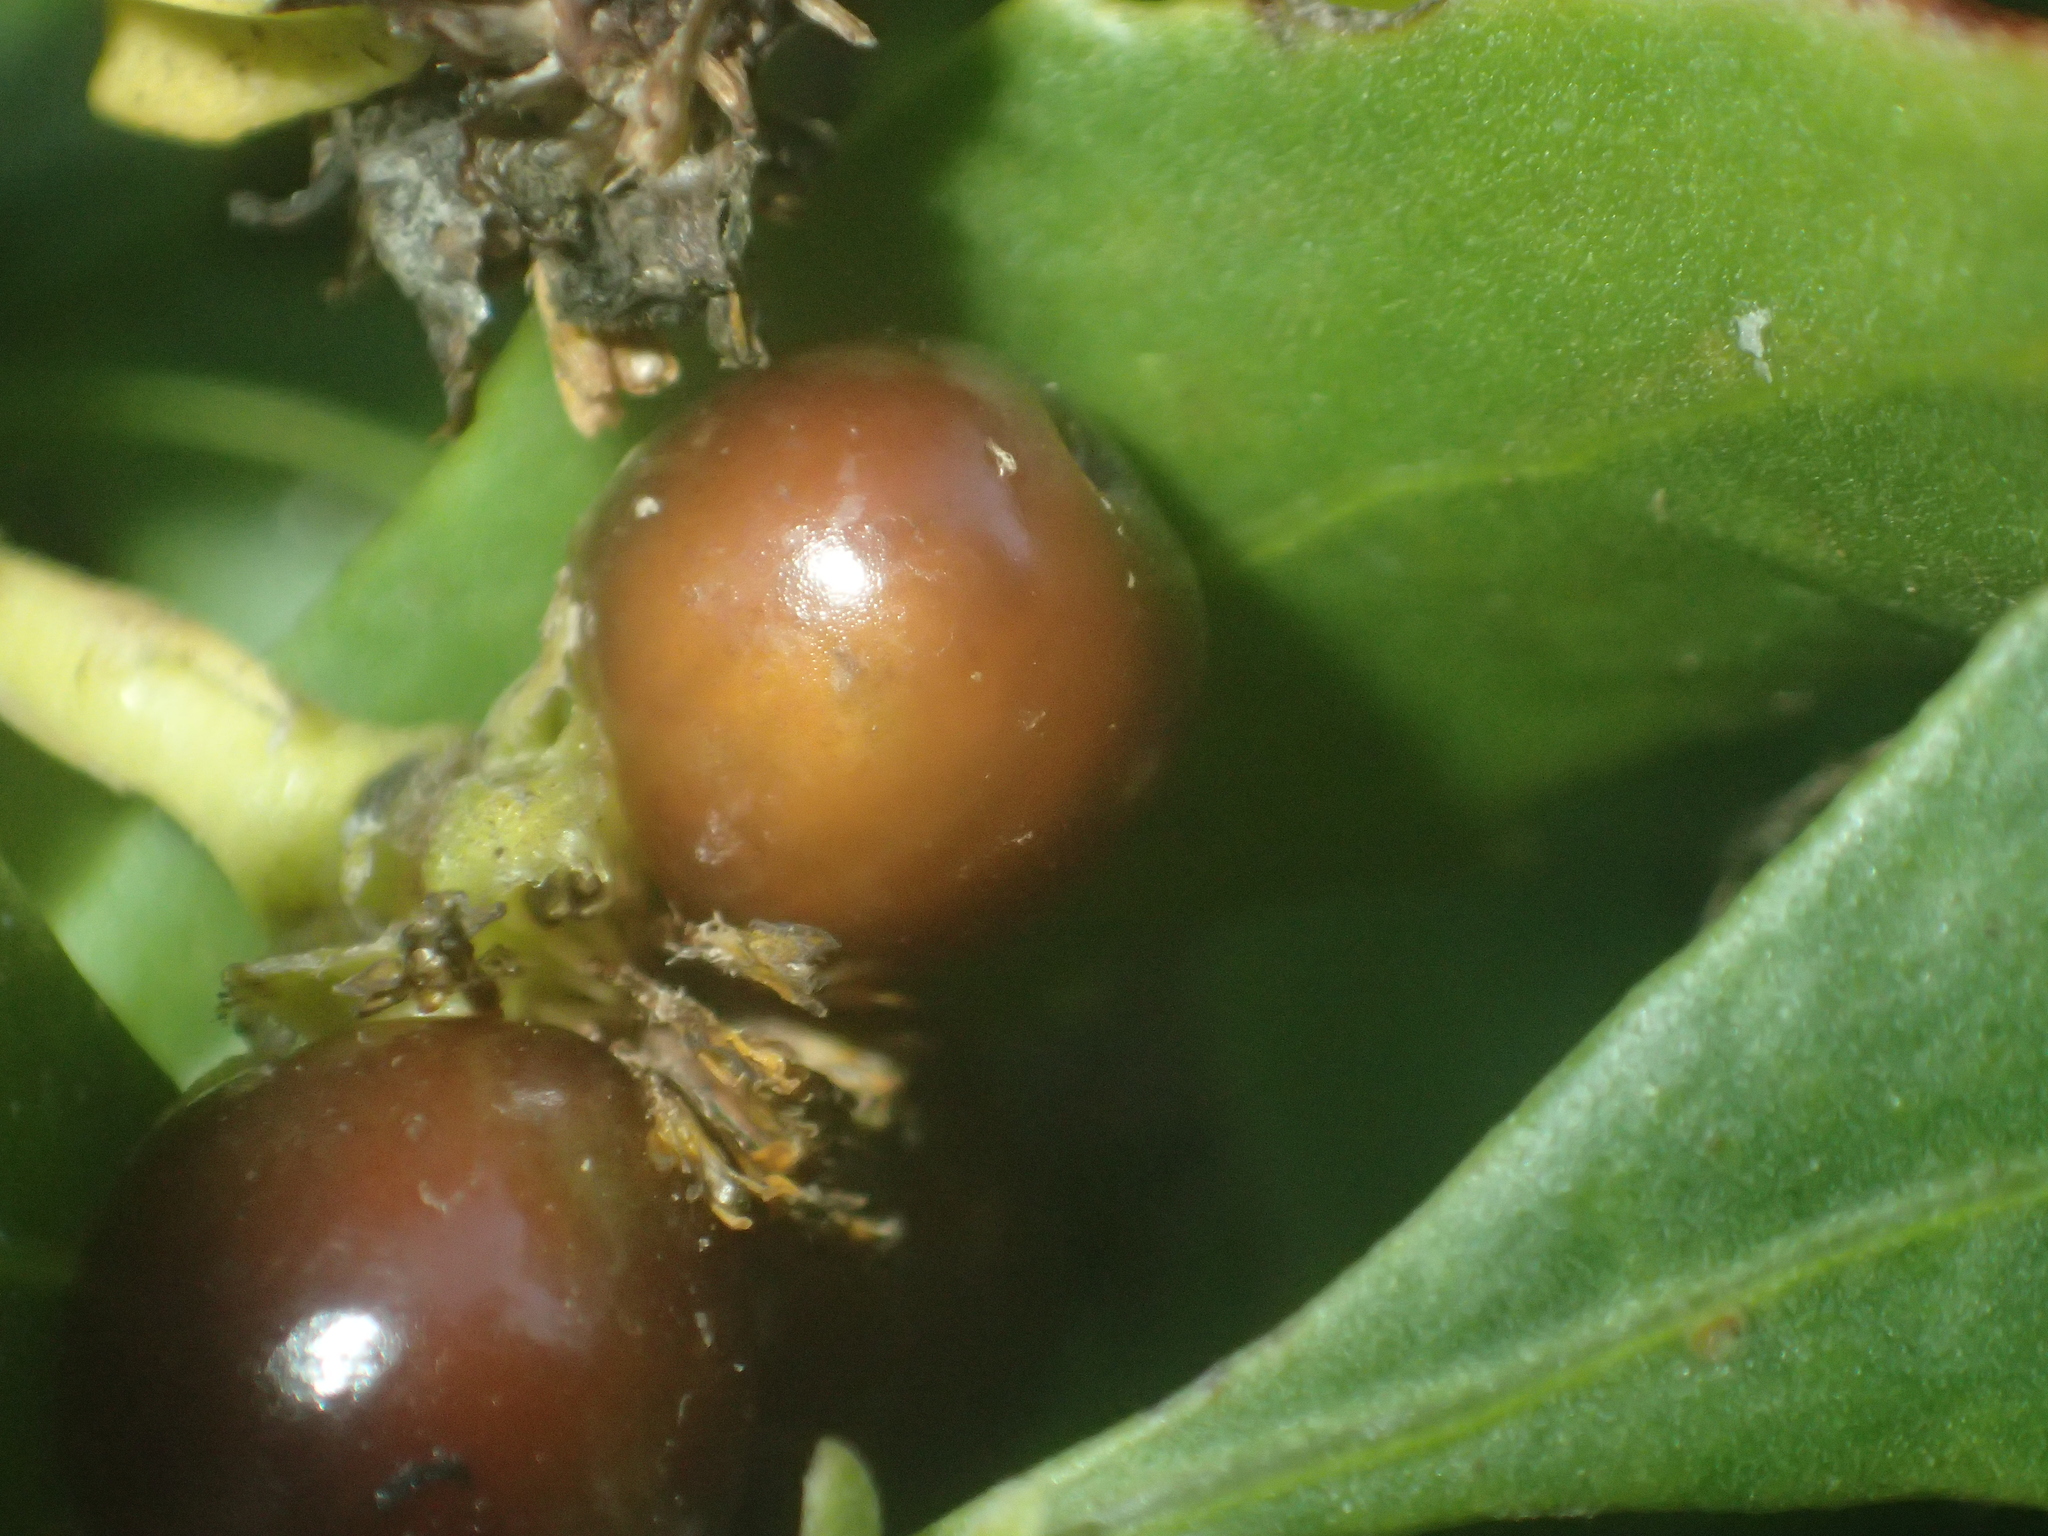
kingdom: Plantae
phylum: Tracheophyta
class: Magnoliopsida
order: Asterales
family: Asteraceae
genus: Osteospermum
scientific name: Osteospermum moniliferum
